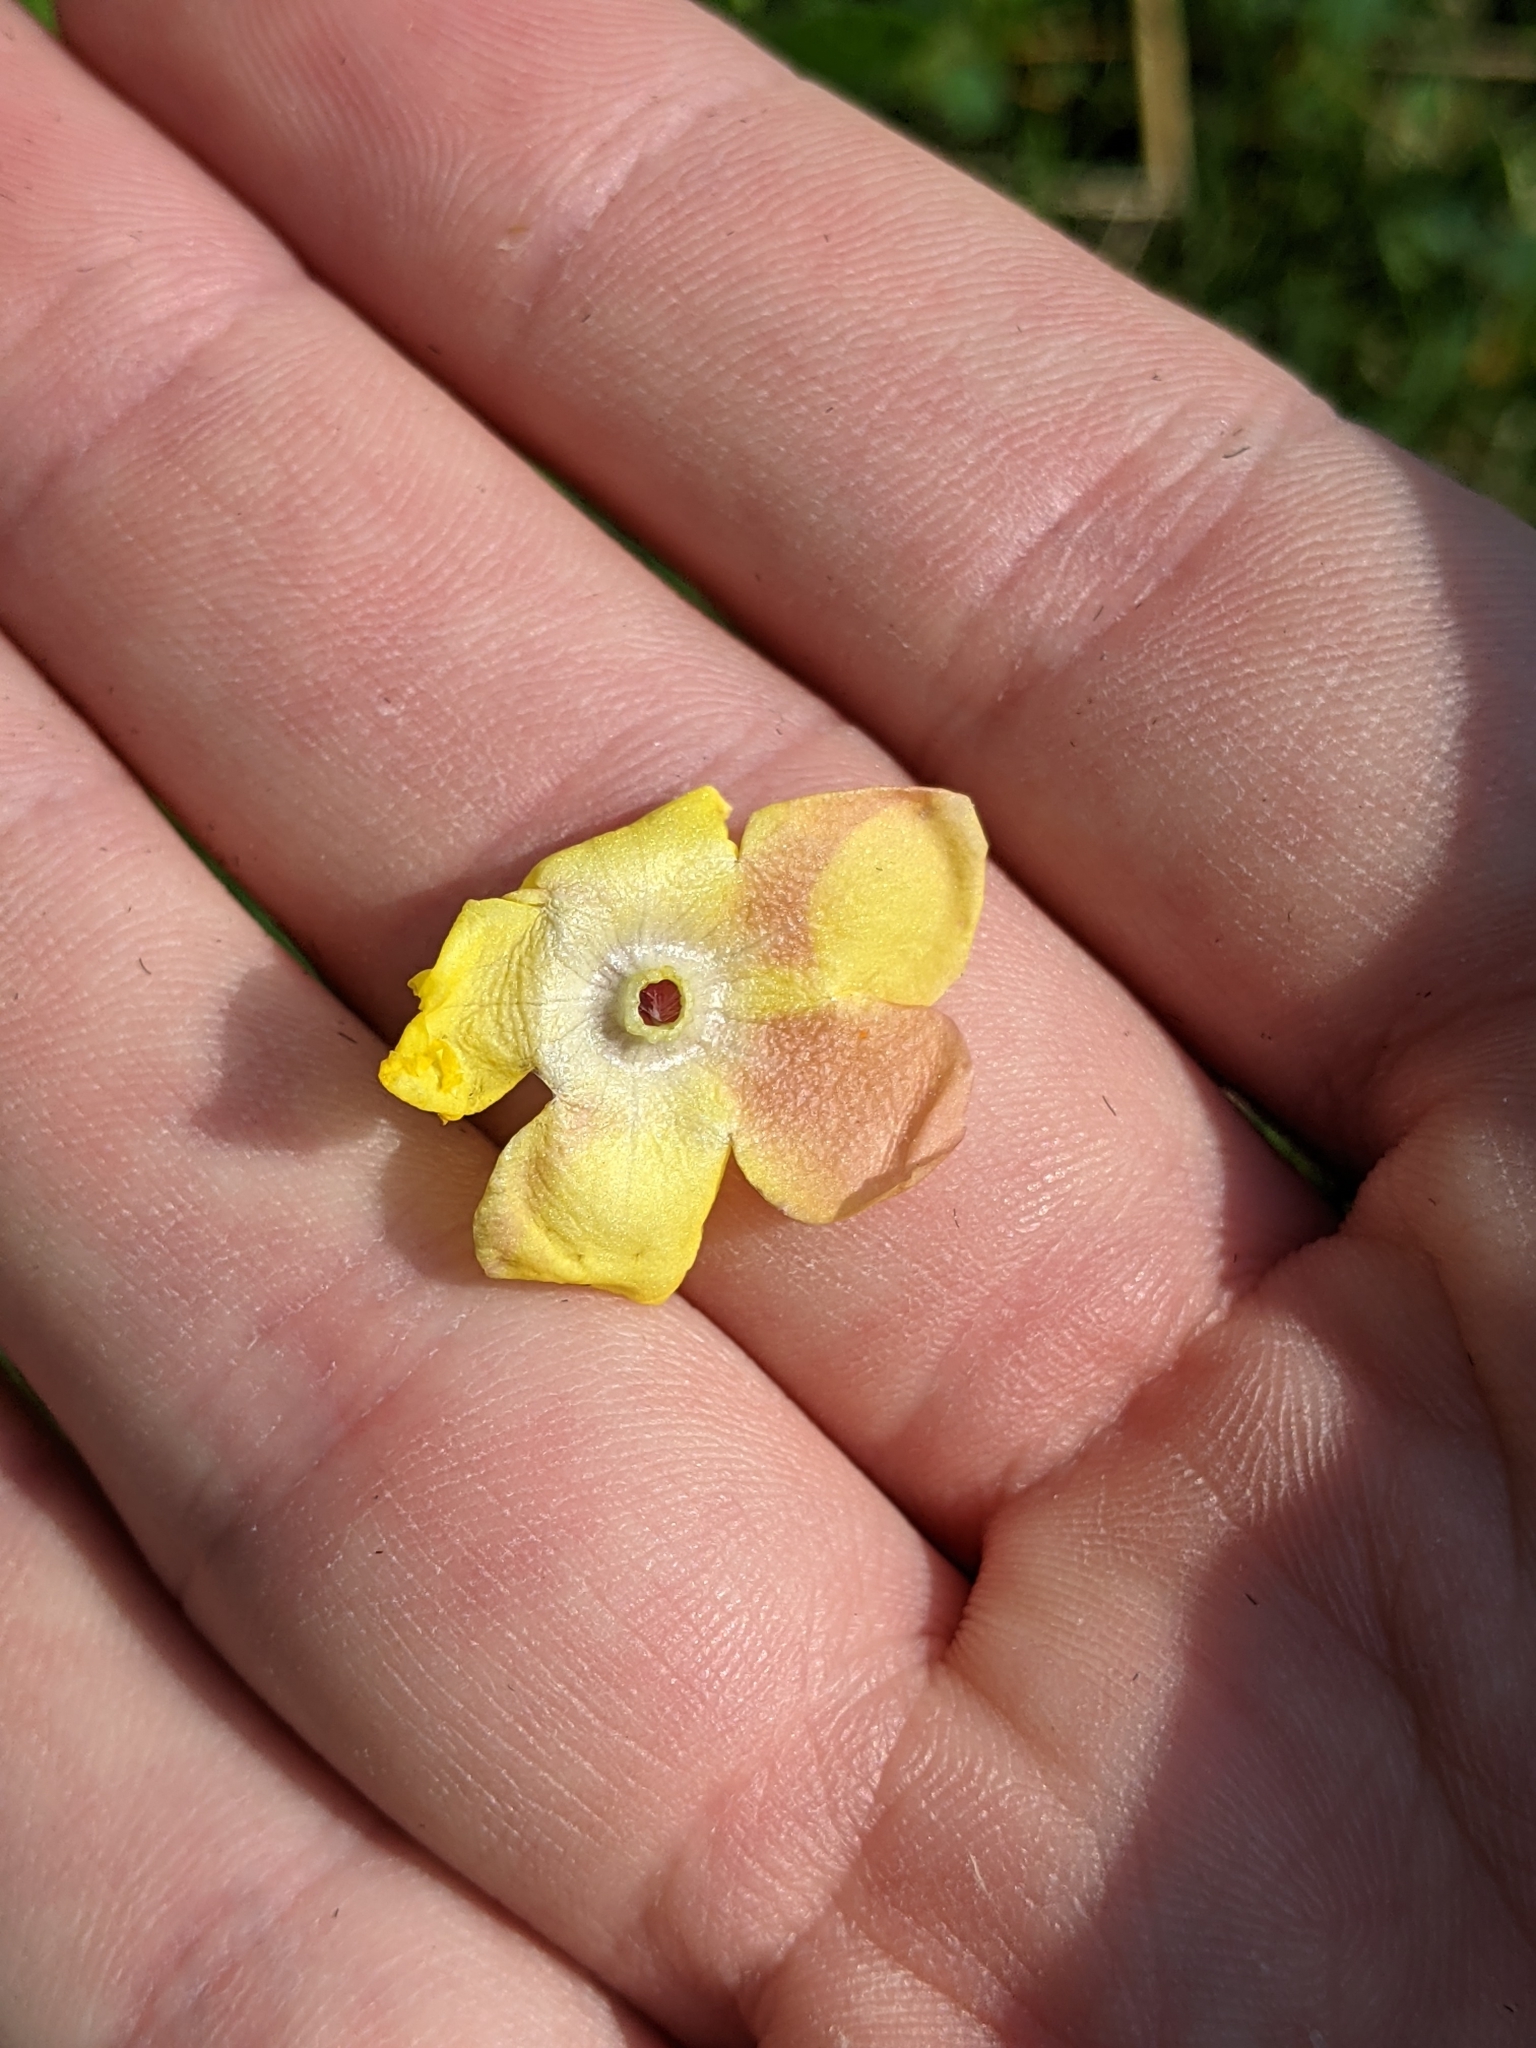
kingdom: Plantae
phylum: Tracheophyta
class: Magnoliopsida
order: Lamiales
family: Scrophulariaceae
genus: Verbascum
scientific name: Verbascum blattaria
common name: Moth mullein
